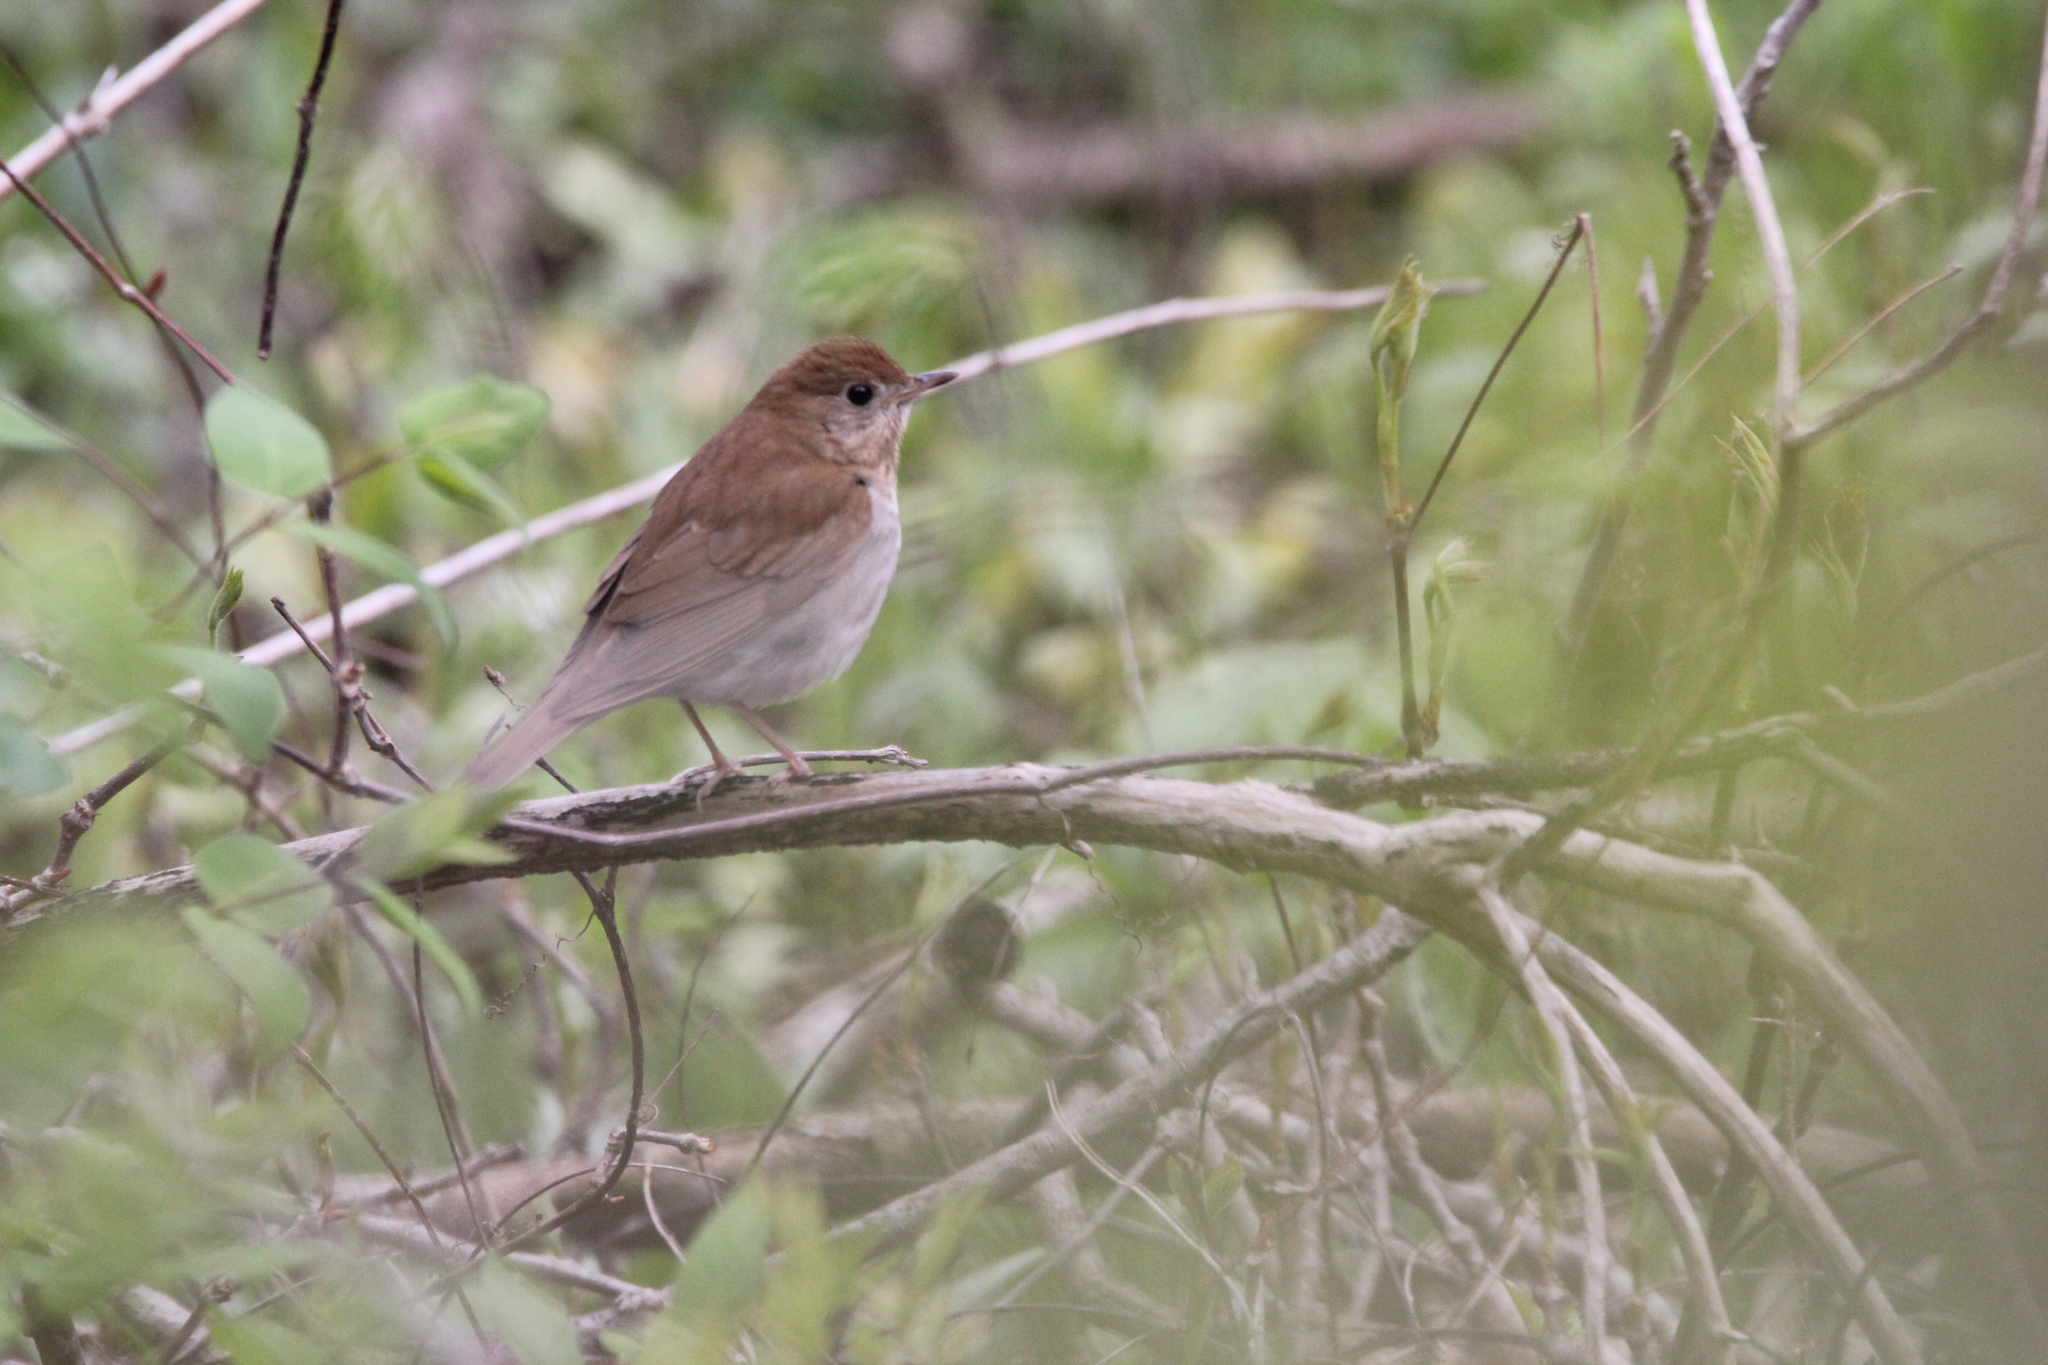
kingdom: Animalia
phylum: Chordata
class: Aves
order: Passeriformes
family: Turdidae
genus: Catharus
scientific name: Catharus fuscescens
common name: Veery
